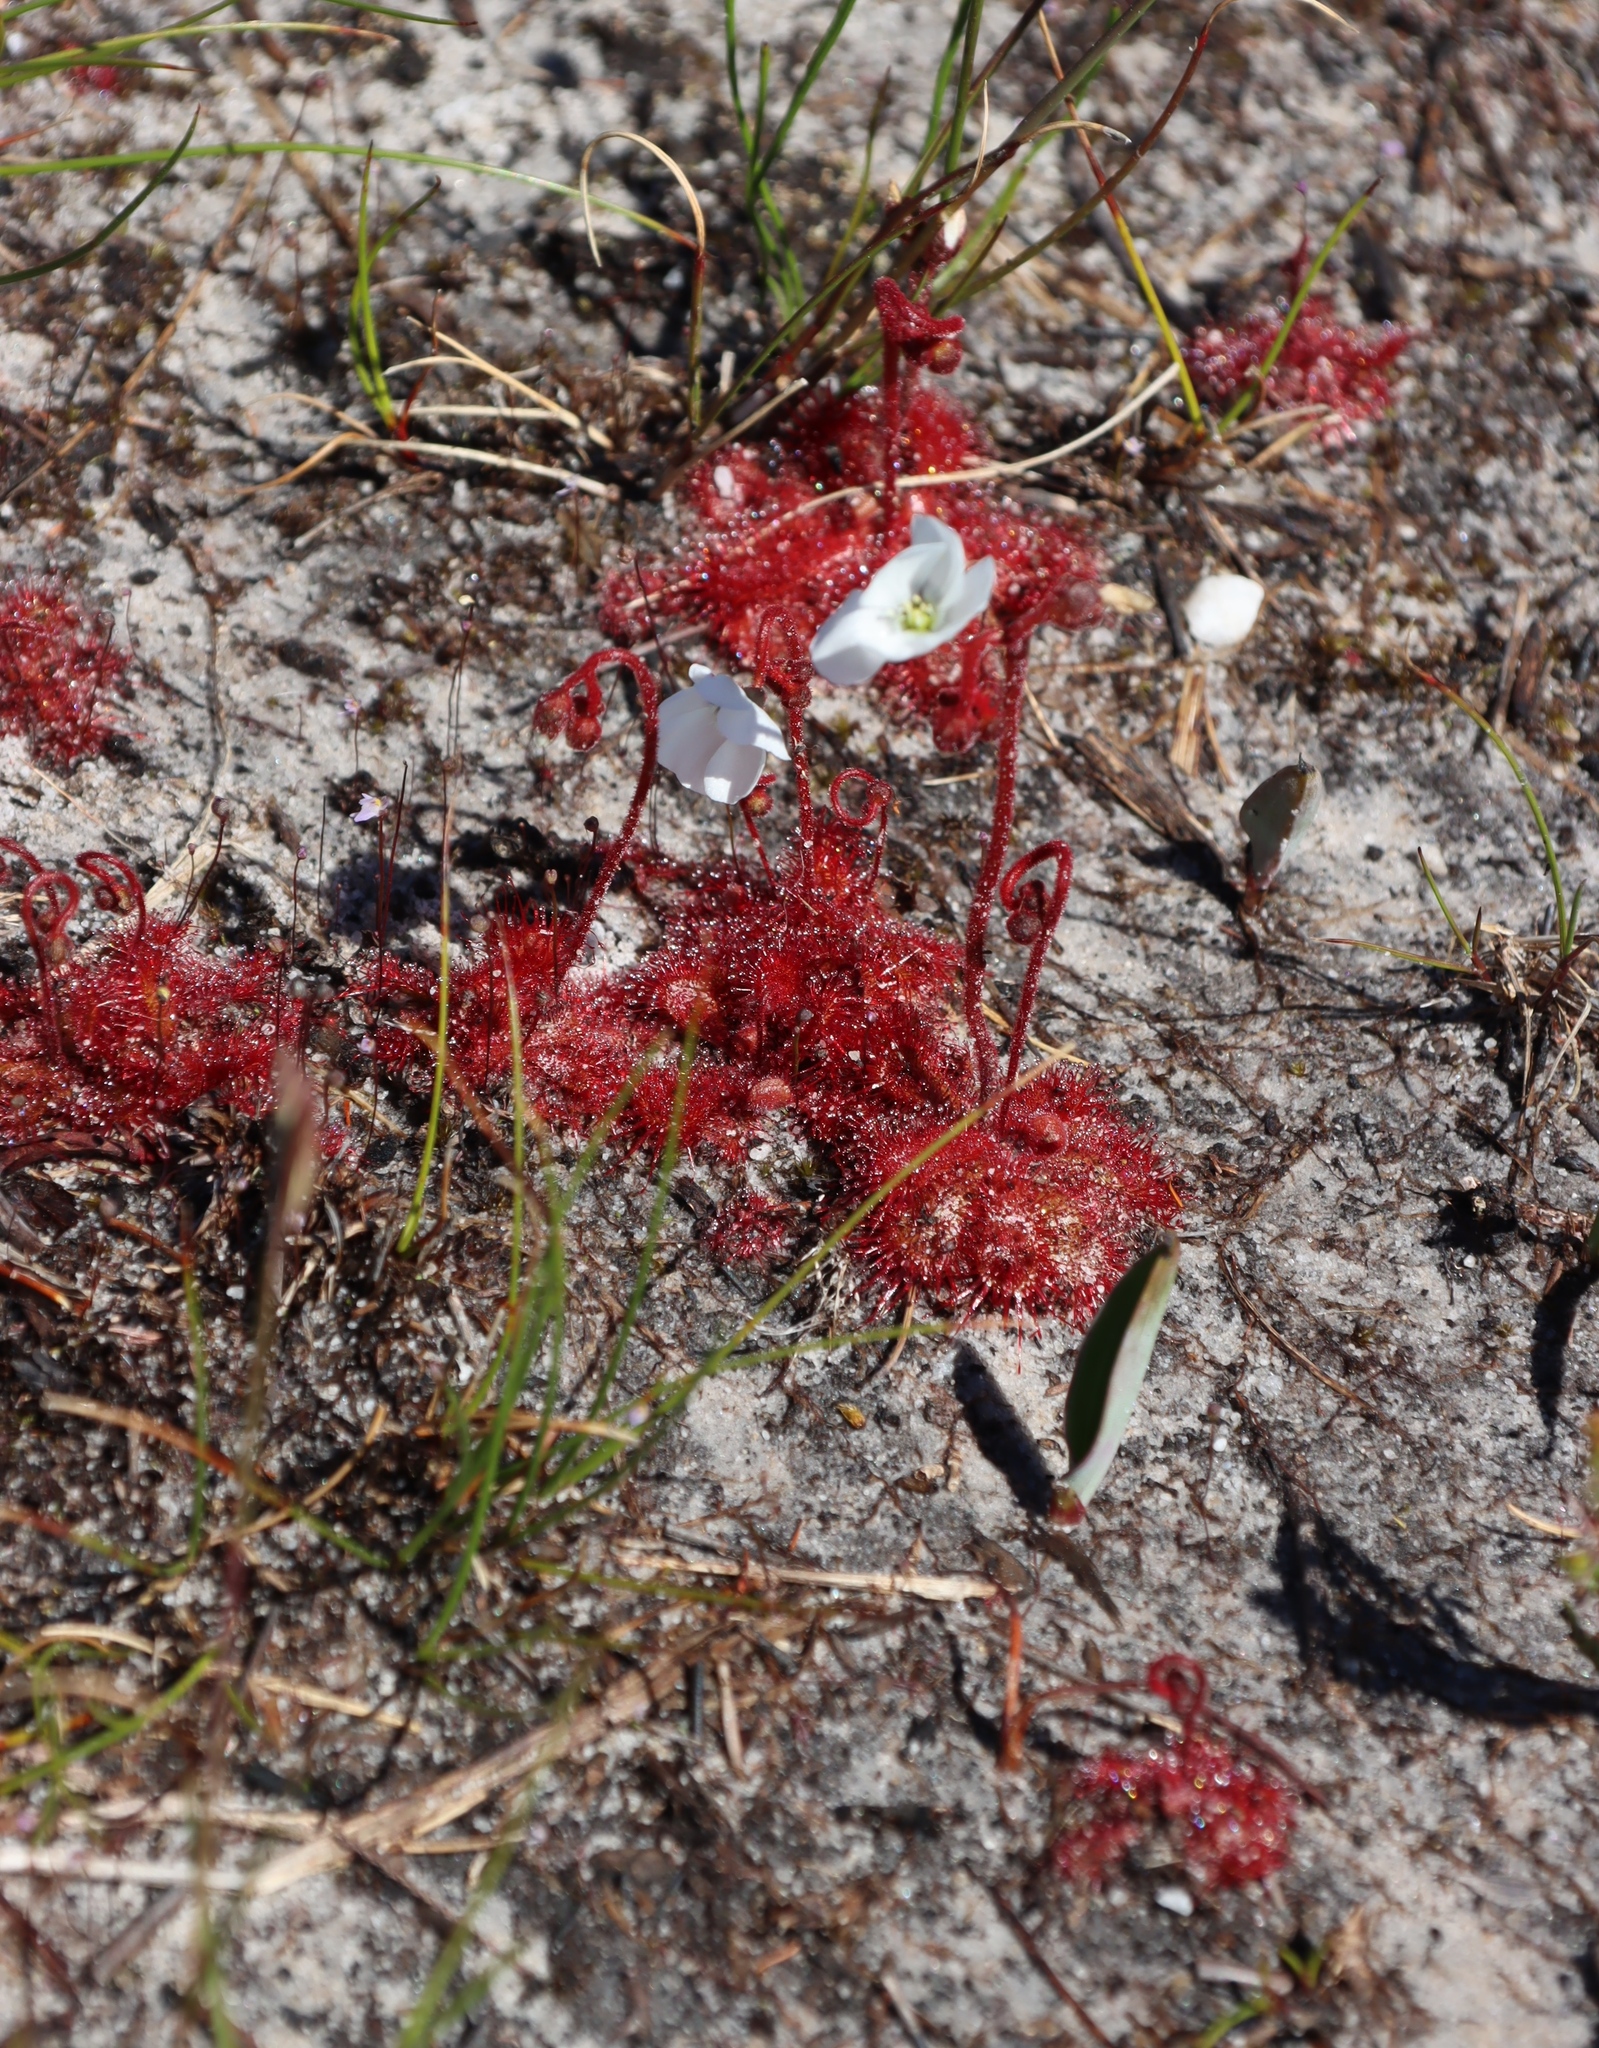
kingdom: Plantae
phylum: Tracheophyta
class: Magnoliopsida
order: Caryophyllales
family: Droseraceae
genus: Drosera
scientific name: Drosera trinervia
